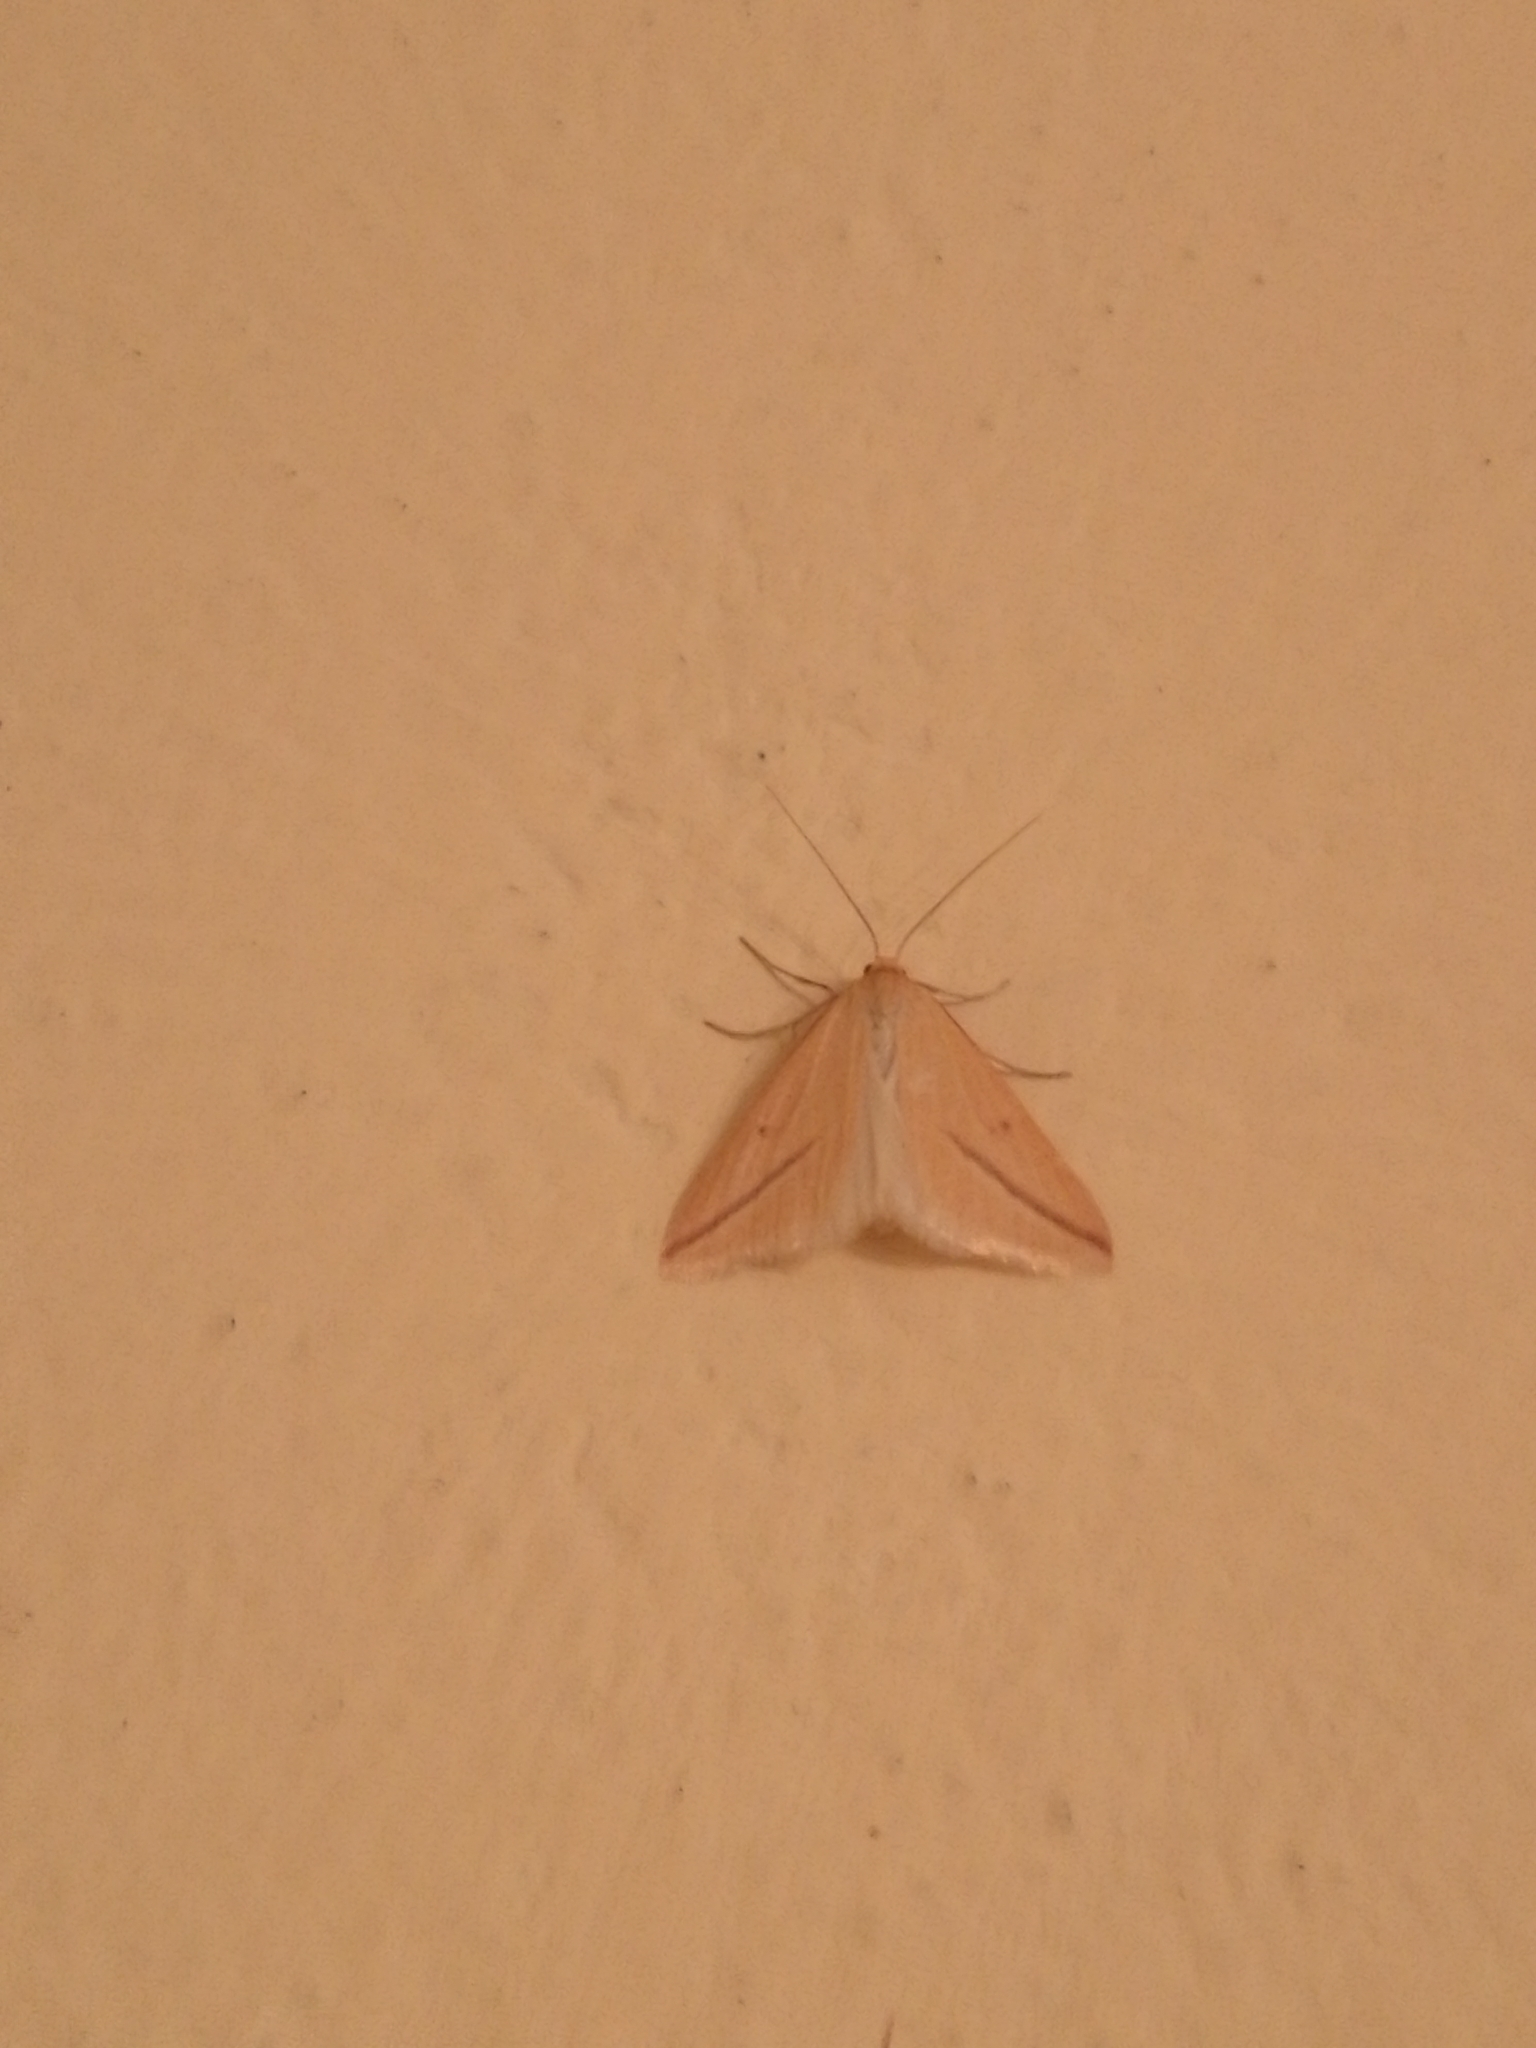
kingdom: Animalia
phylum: Arthropoda
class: Insecta
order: Lepidoptera
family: Geometridae
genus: Rhodometra
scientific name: Rhodometra sacraria
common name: Vestal
